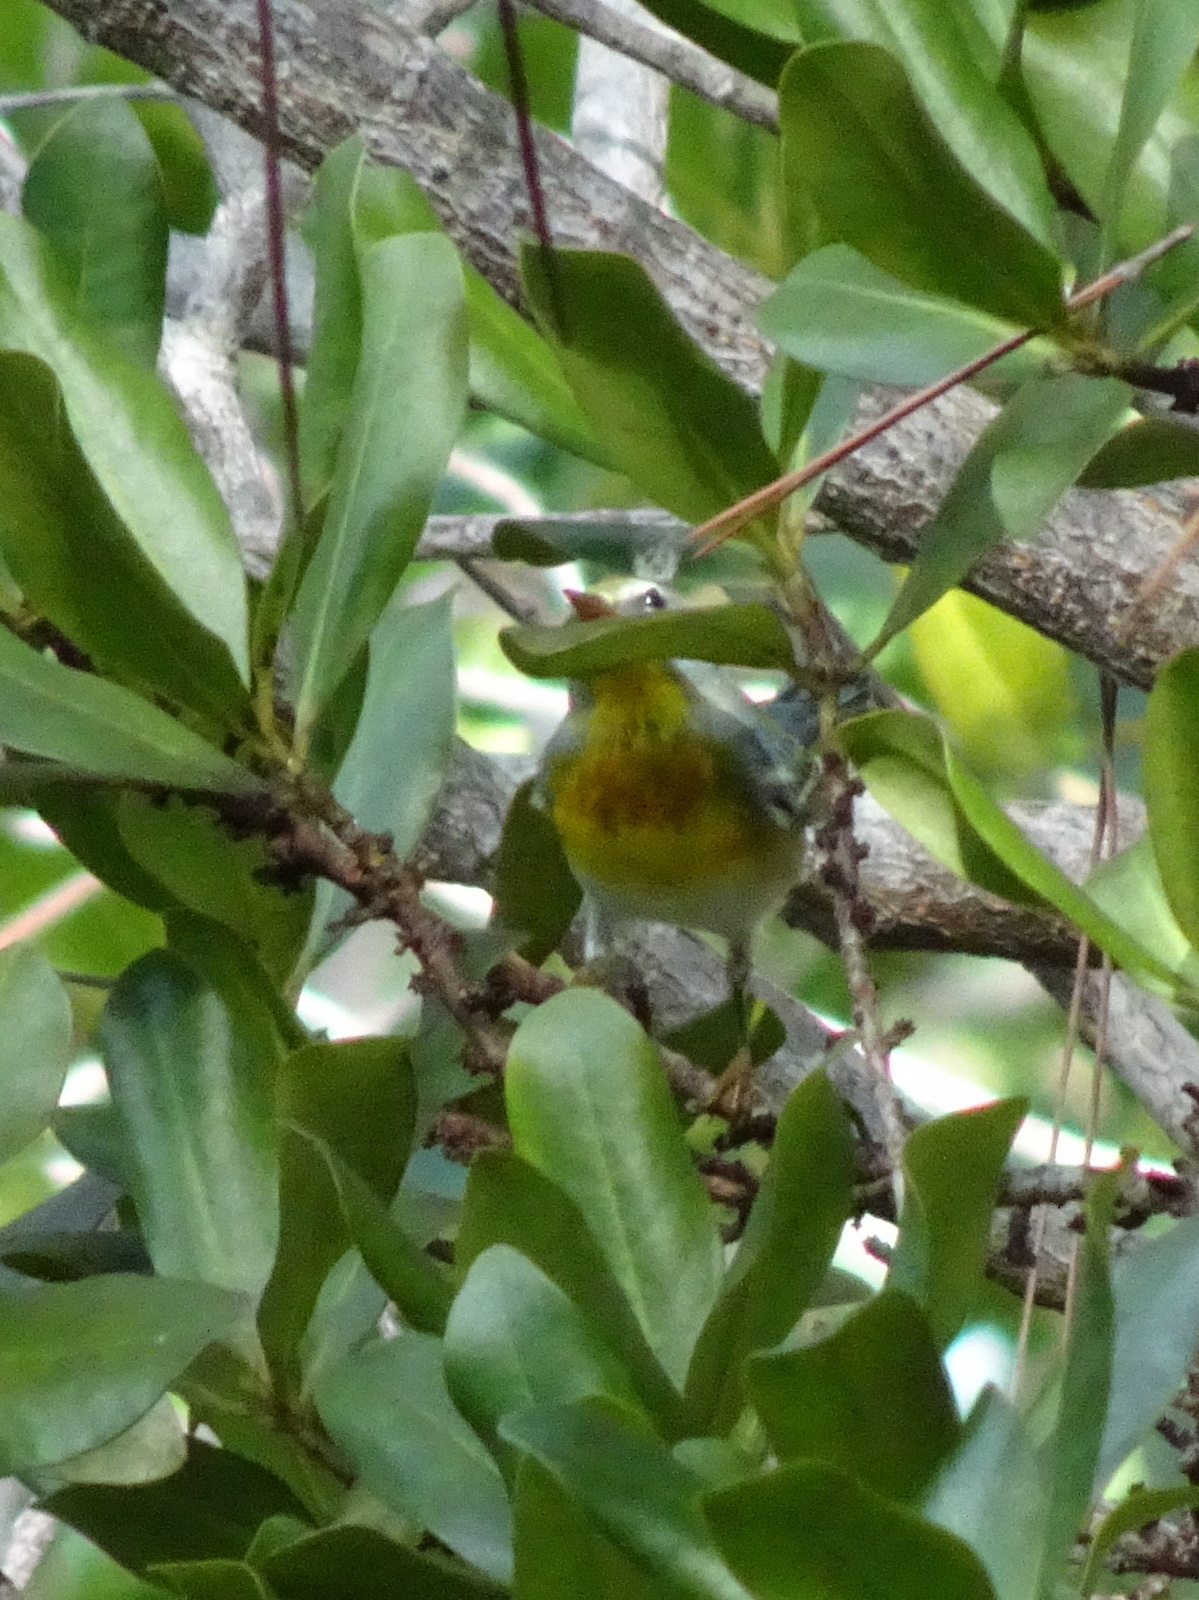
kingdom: Animalia
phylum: Chordata
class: Aves
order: Passeriformes
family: Parulidae
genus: Setophaga
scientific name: Setophaga americana
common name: Northern parula
